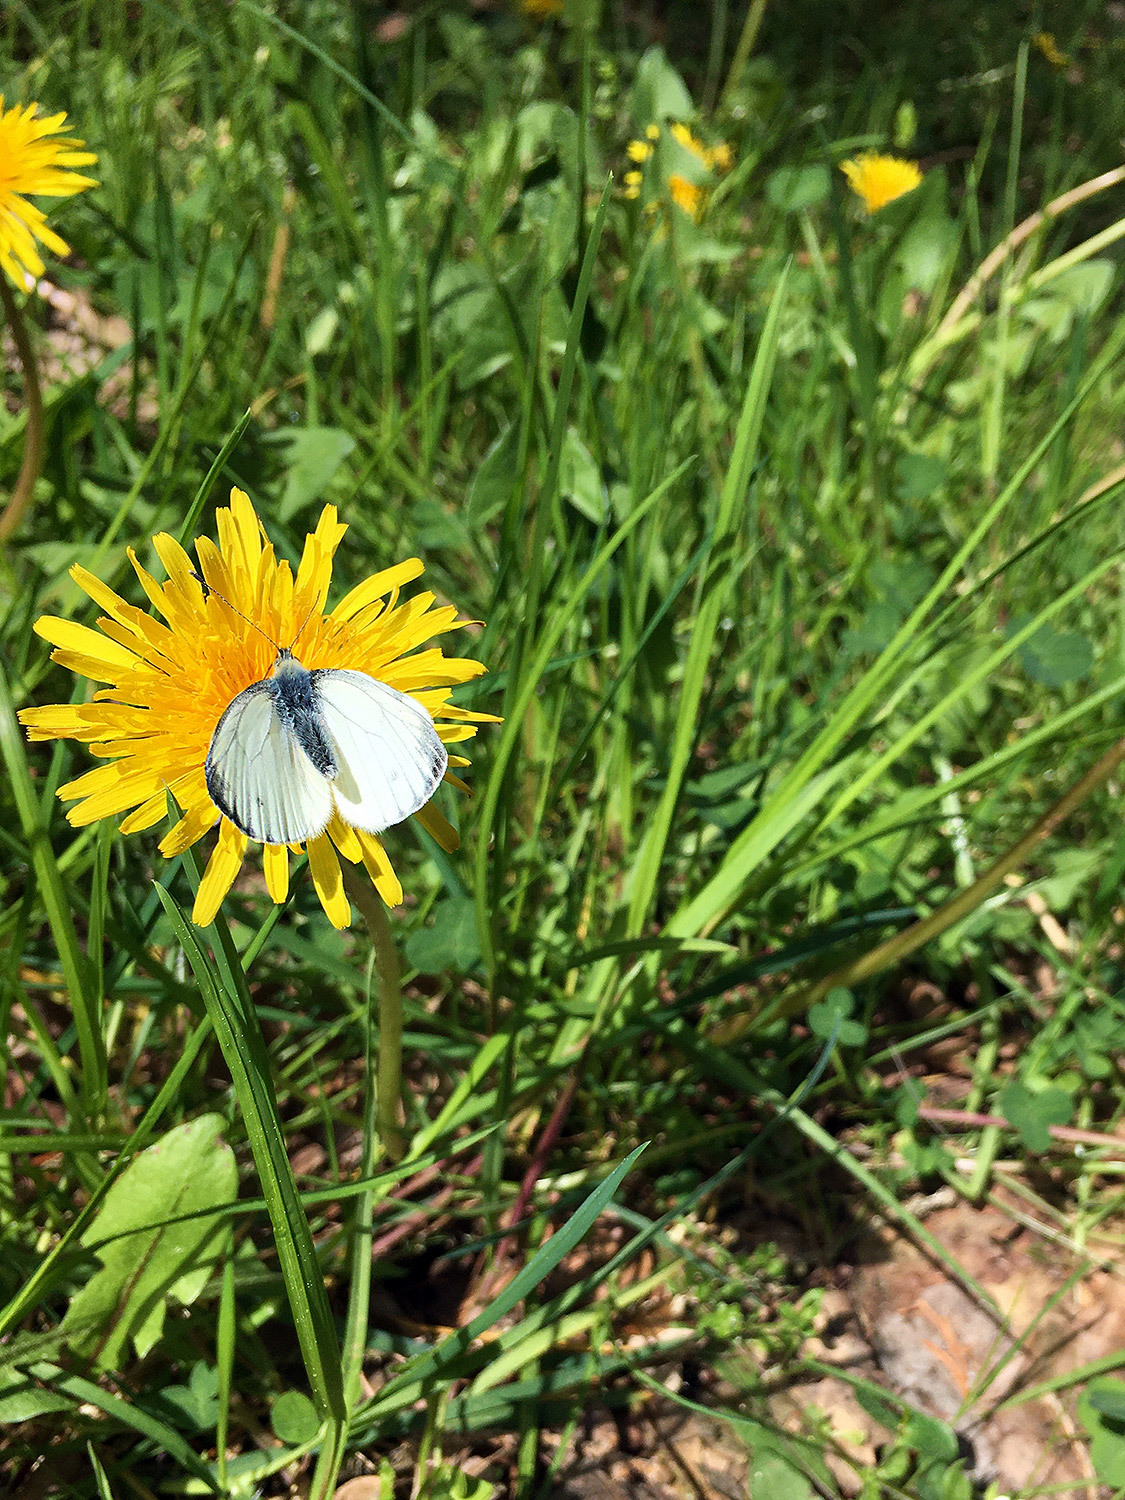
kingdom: Animalia
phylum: Arthropoda
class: Insecta
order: Lepidoptera
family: Pieridae
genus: Pieris
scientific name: Pieris napi
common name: Green-veined white
